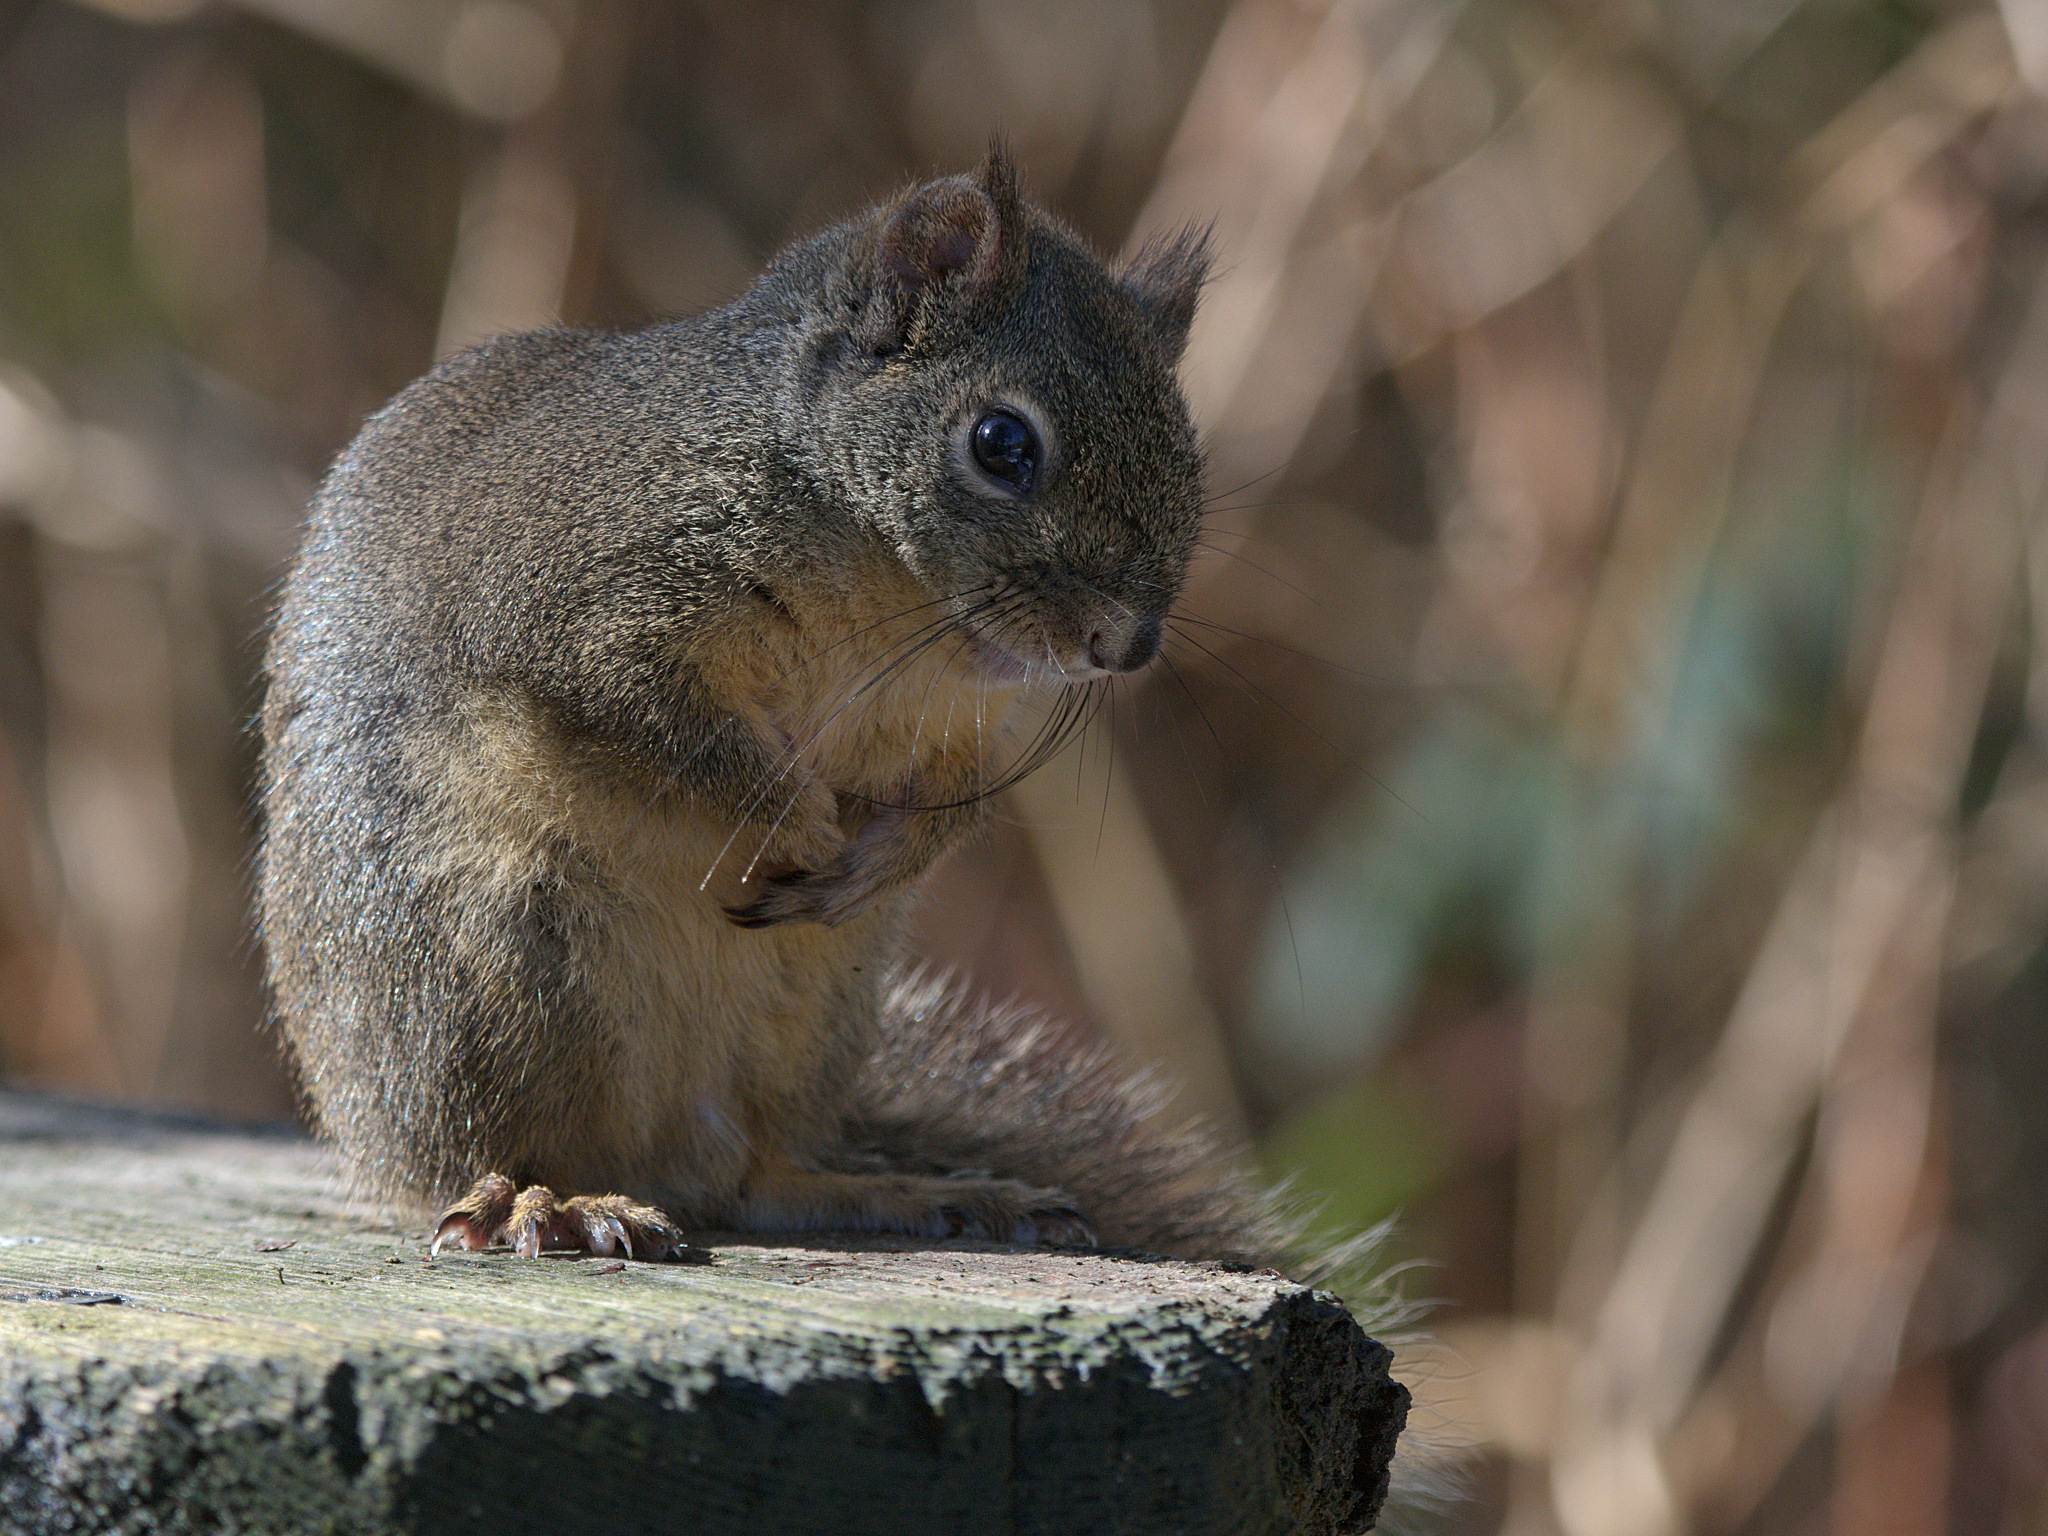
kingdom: Animalia
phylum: Chordata
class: Mammalia
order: Rodentia
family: Sciuridae
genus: Tamiasciurus
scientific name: Tamiasciurus douglasii
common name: Douglas's squirrel
